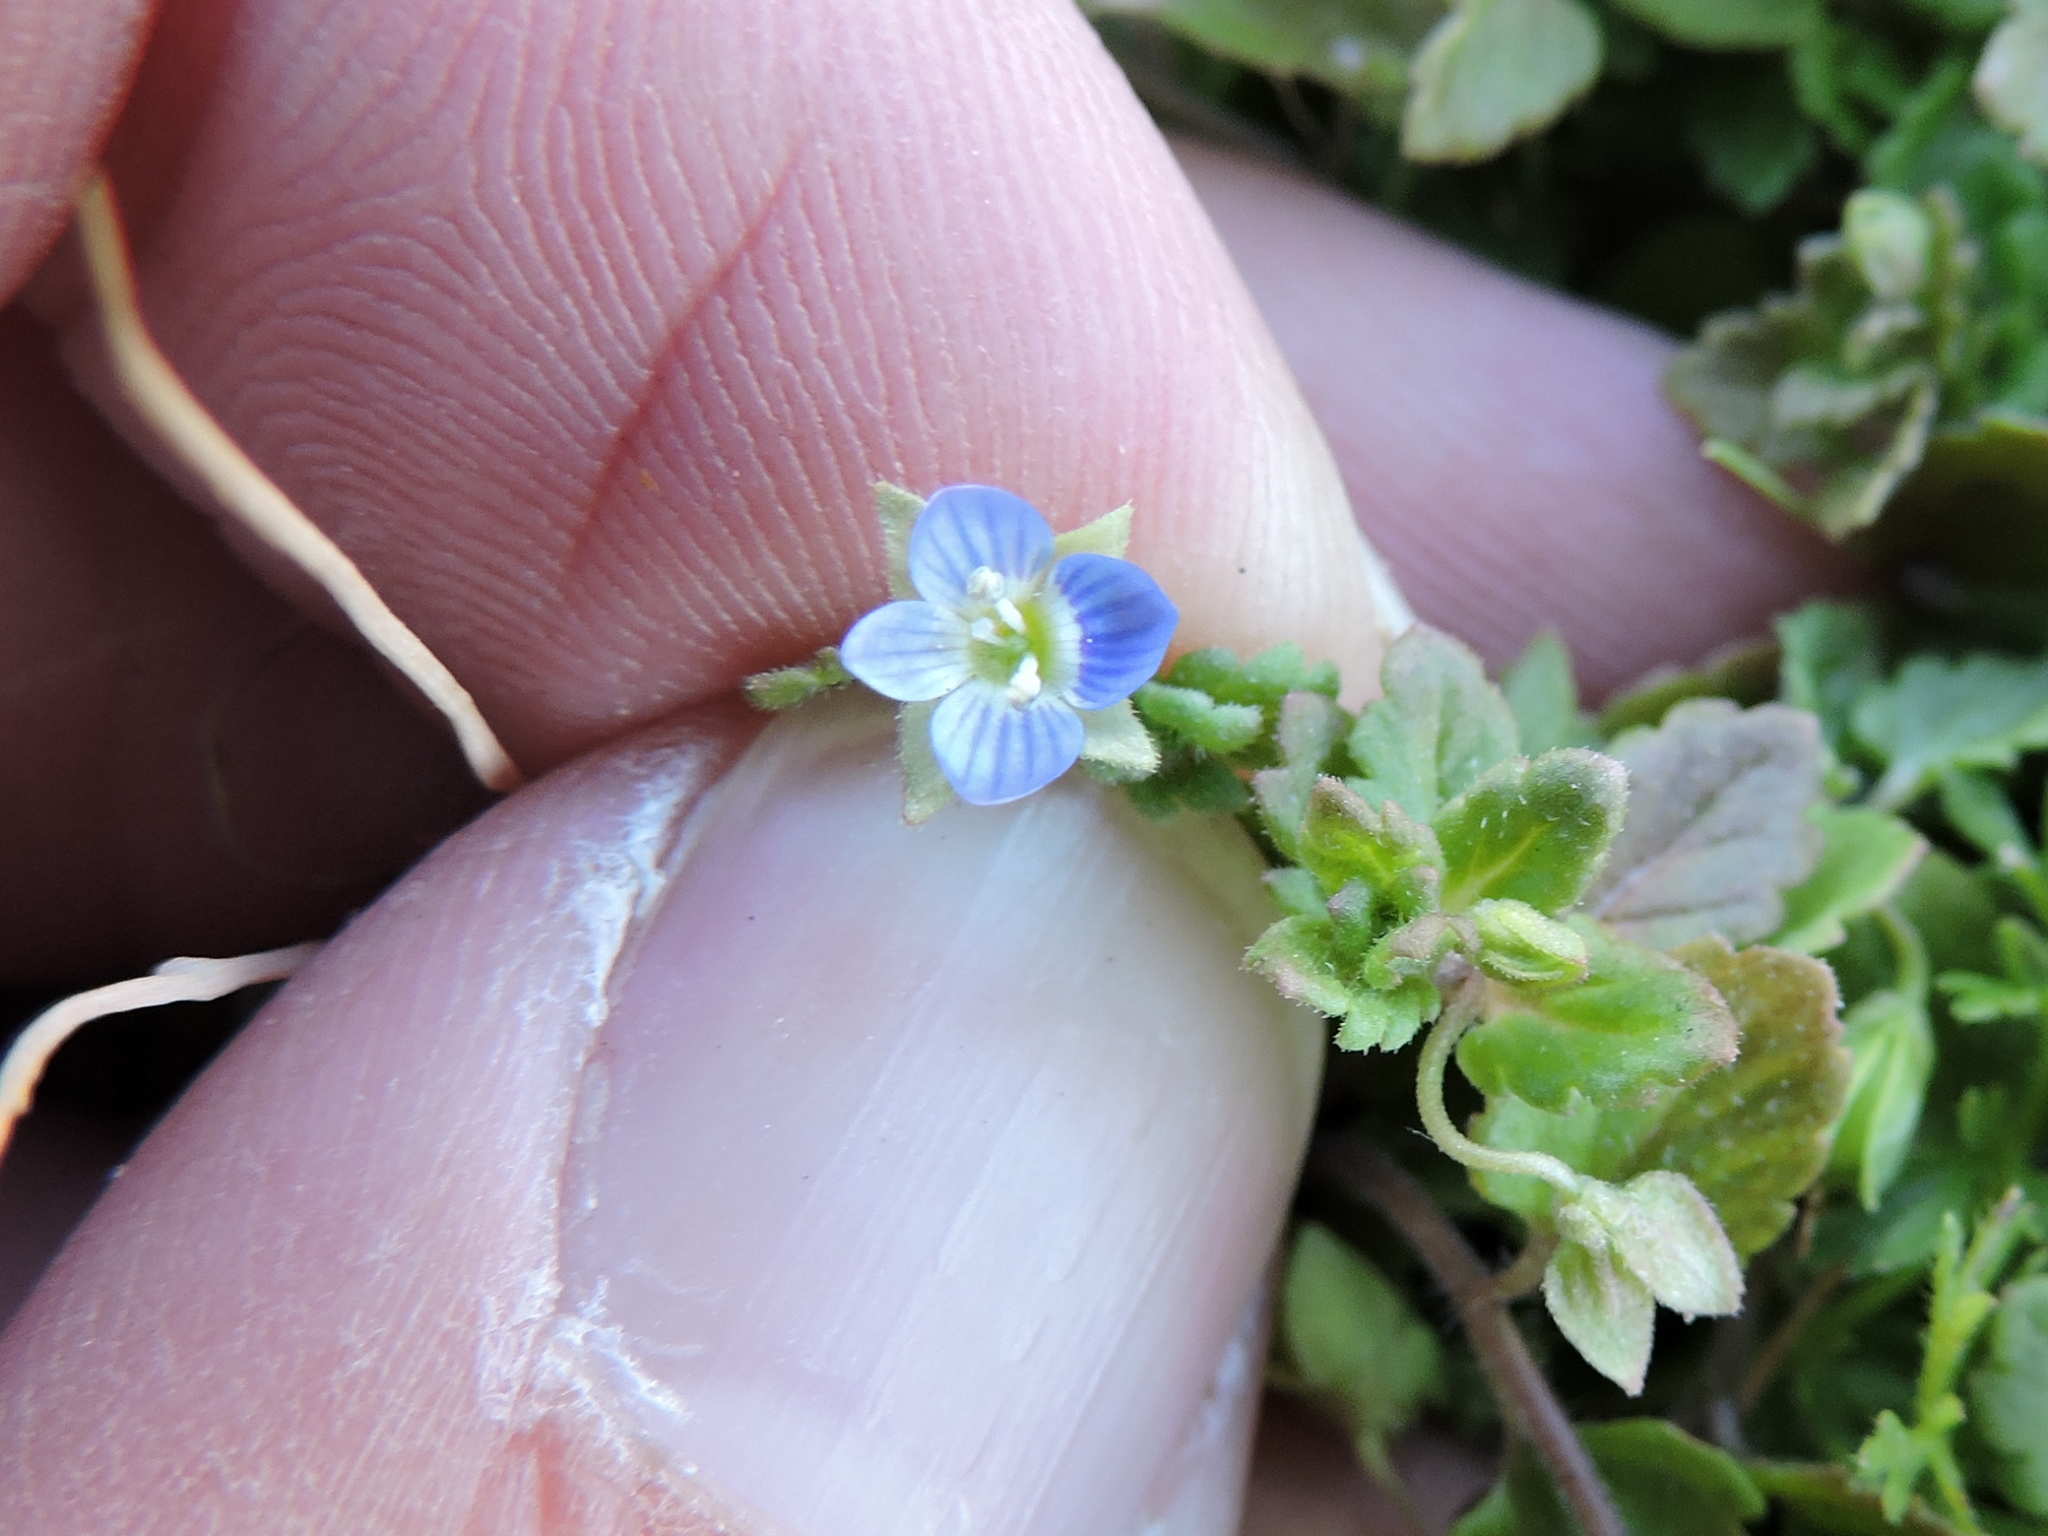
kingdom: Plantae
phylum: Tracheophyta
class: Magnoliopsida
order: Lamiales
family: Plantaginaceae
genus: Veronica
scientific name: Veronica polita
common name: Grey field-speedwell
